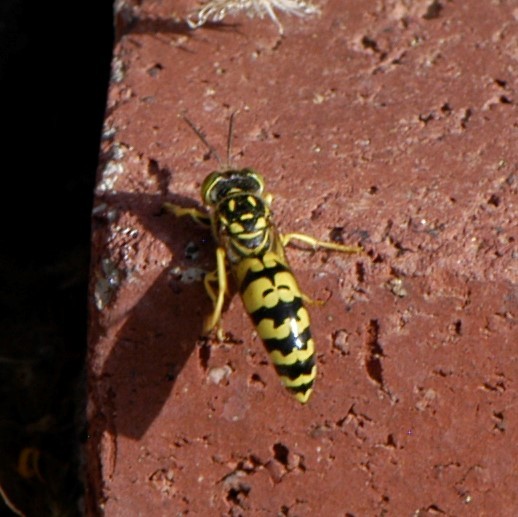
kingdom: Animalia
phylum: Arthropoda
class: Insecta
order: Hymenoptera
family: Crabronidae
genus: Steniolia
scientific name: Steniolia duplicata
